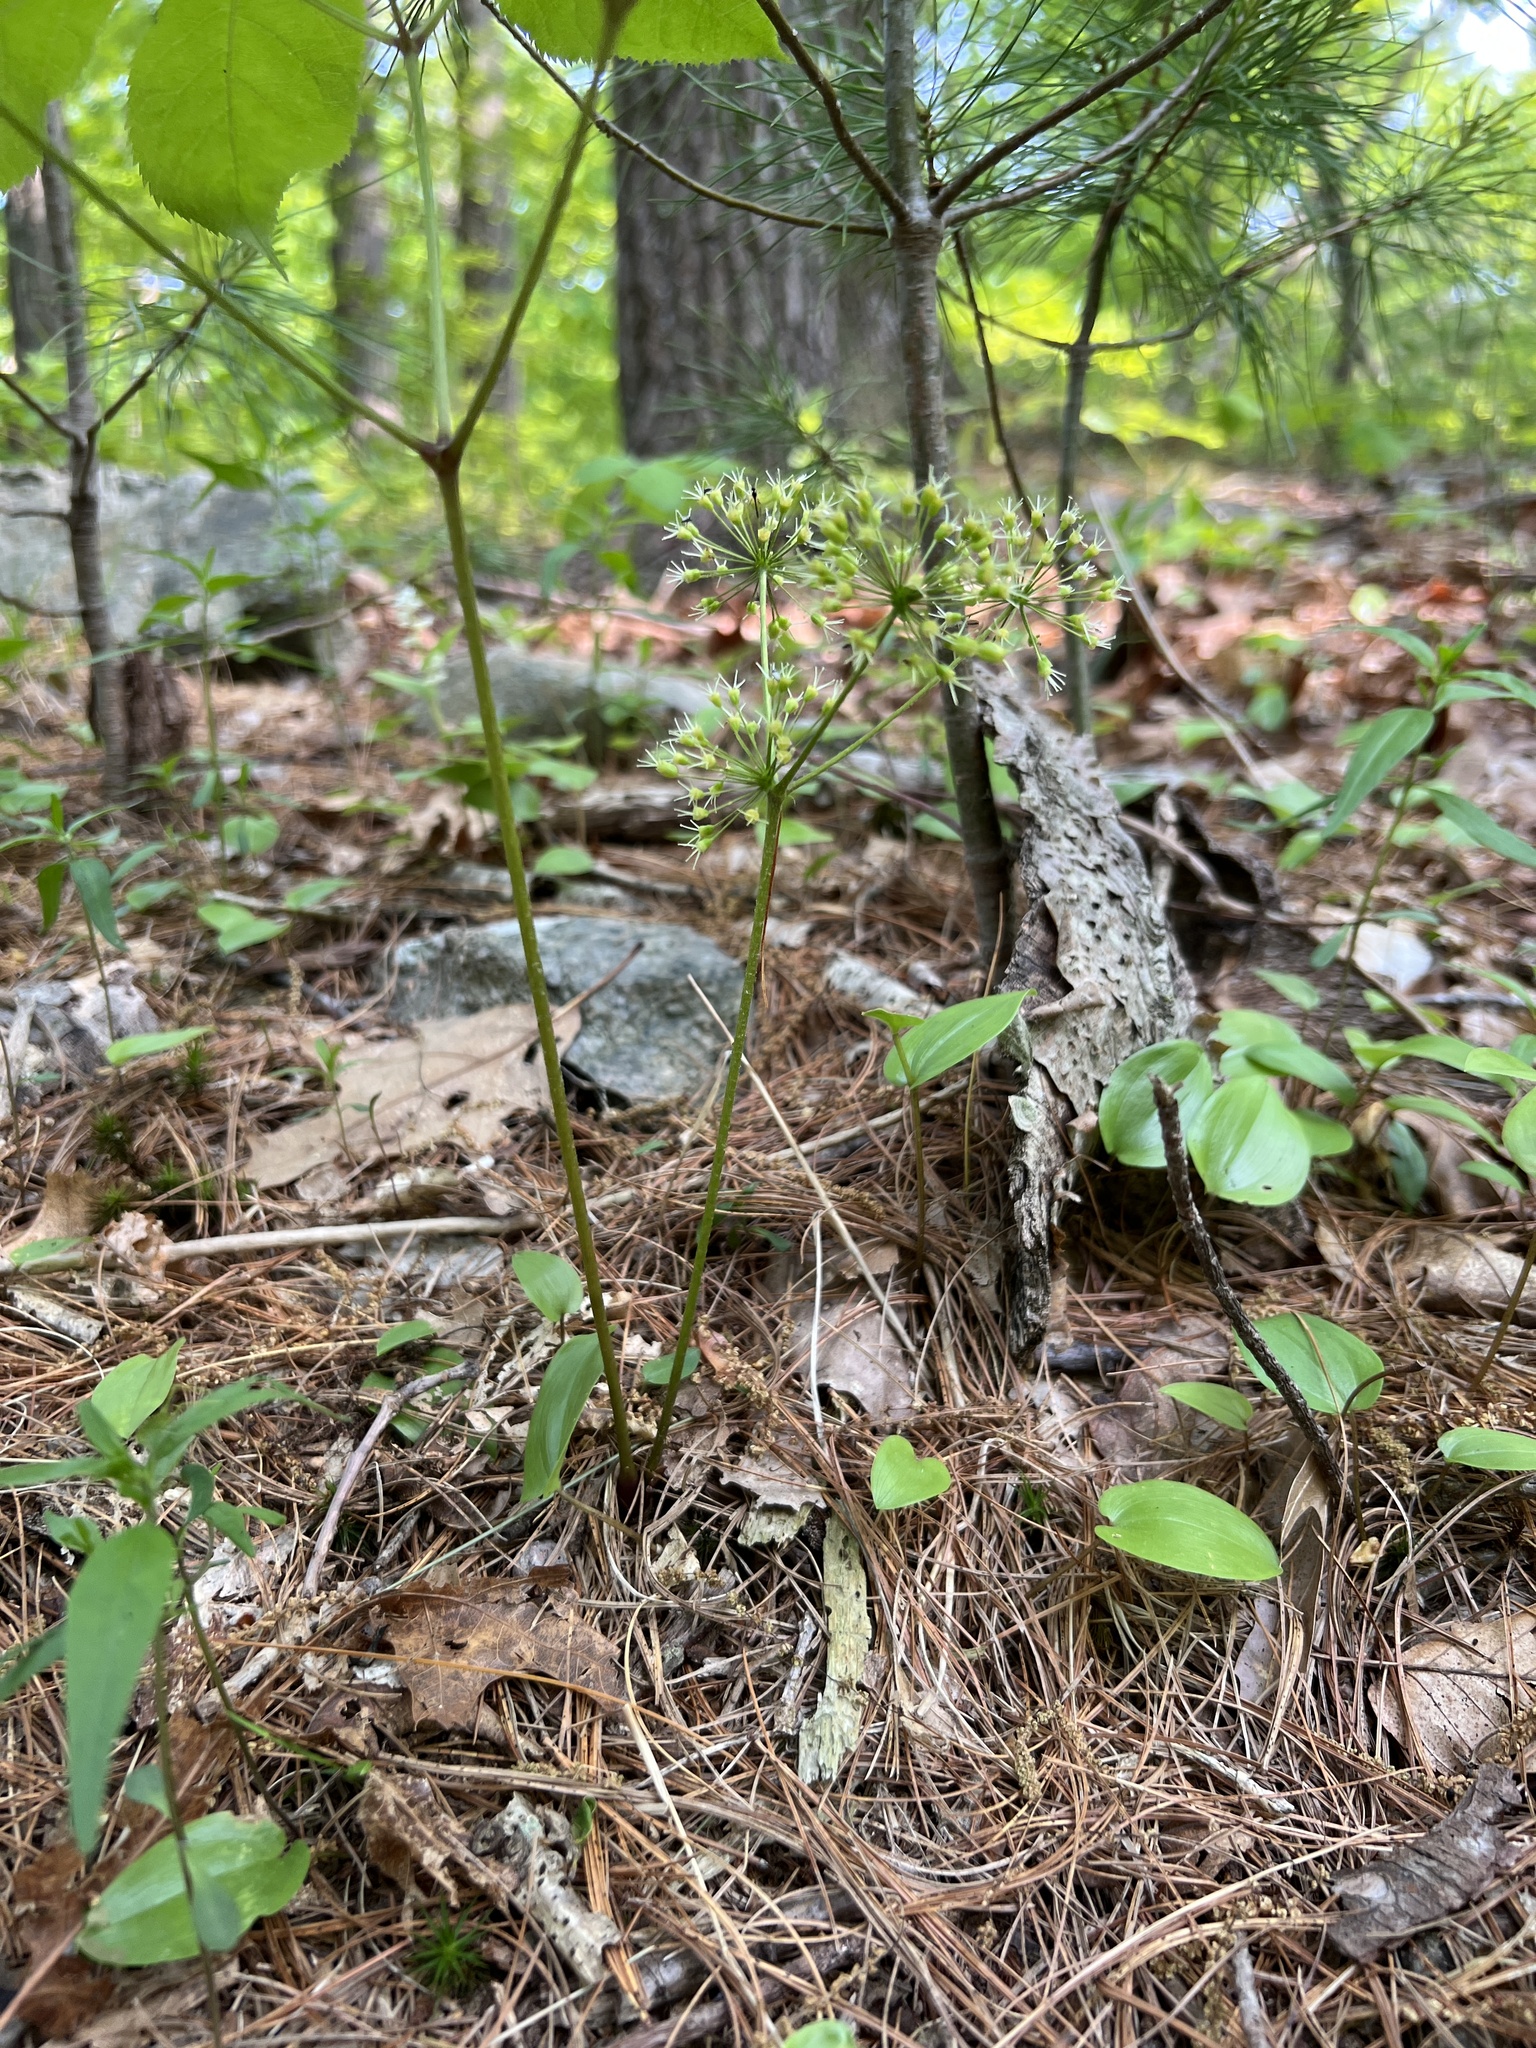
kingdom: Plantae
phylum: Tracheophyta
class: Magnoliopsida
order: Apiales
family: Araliaceae
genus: Aralia
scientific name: Aralia nudicaulis
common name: Wild sarsaparilla
